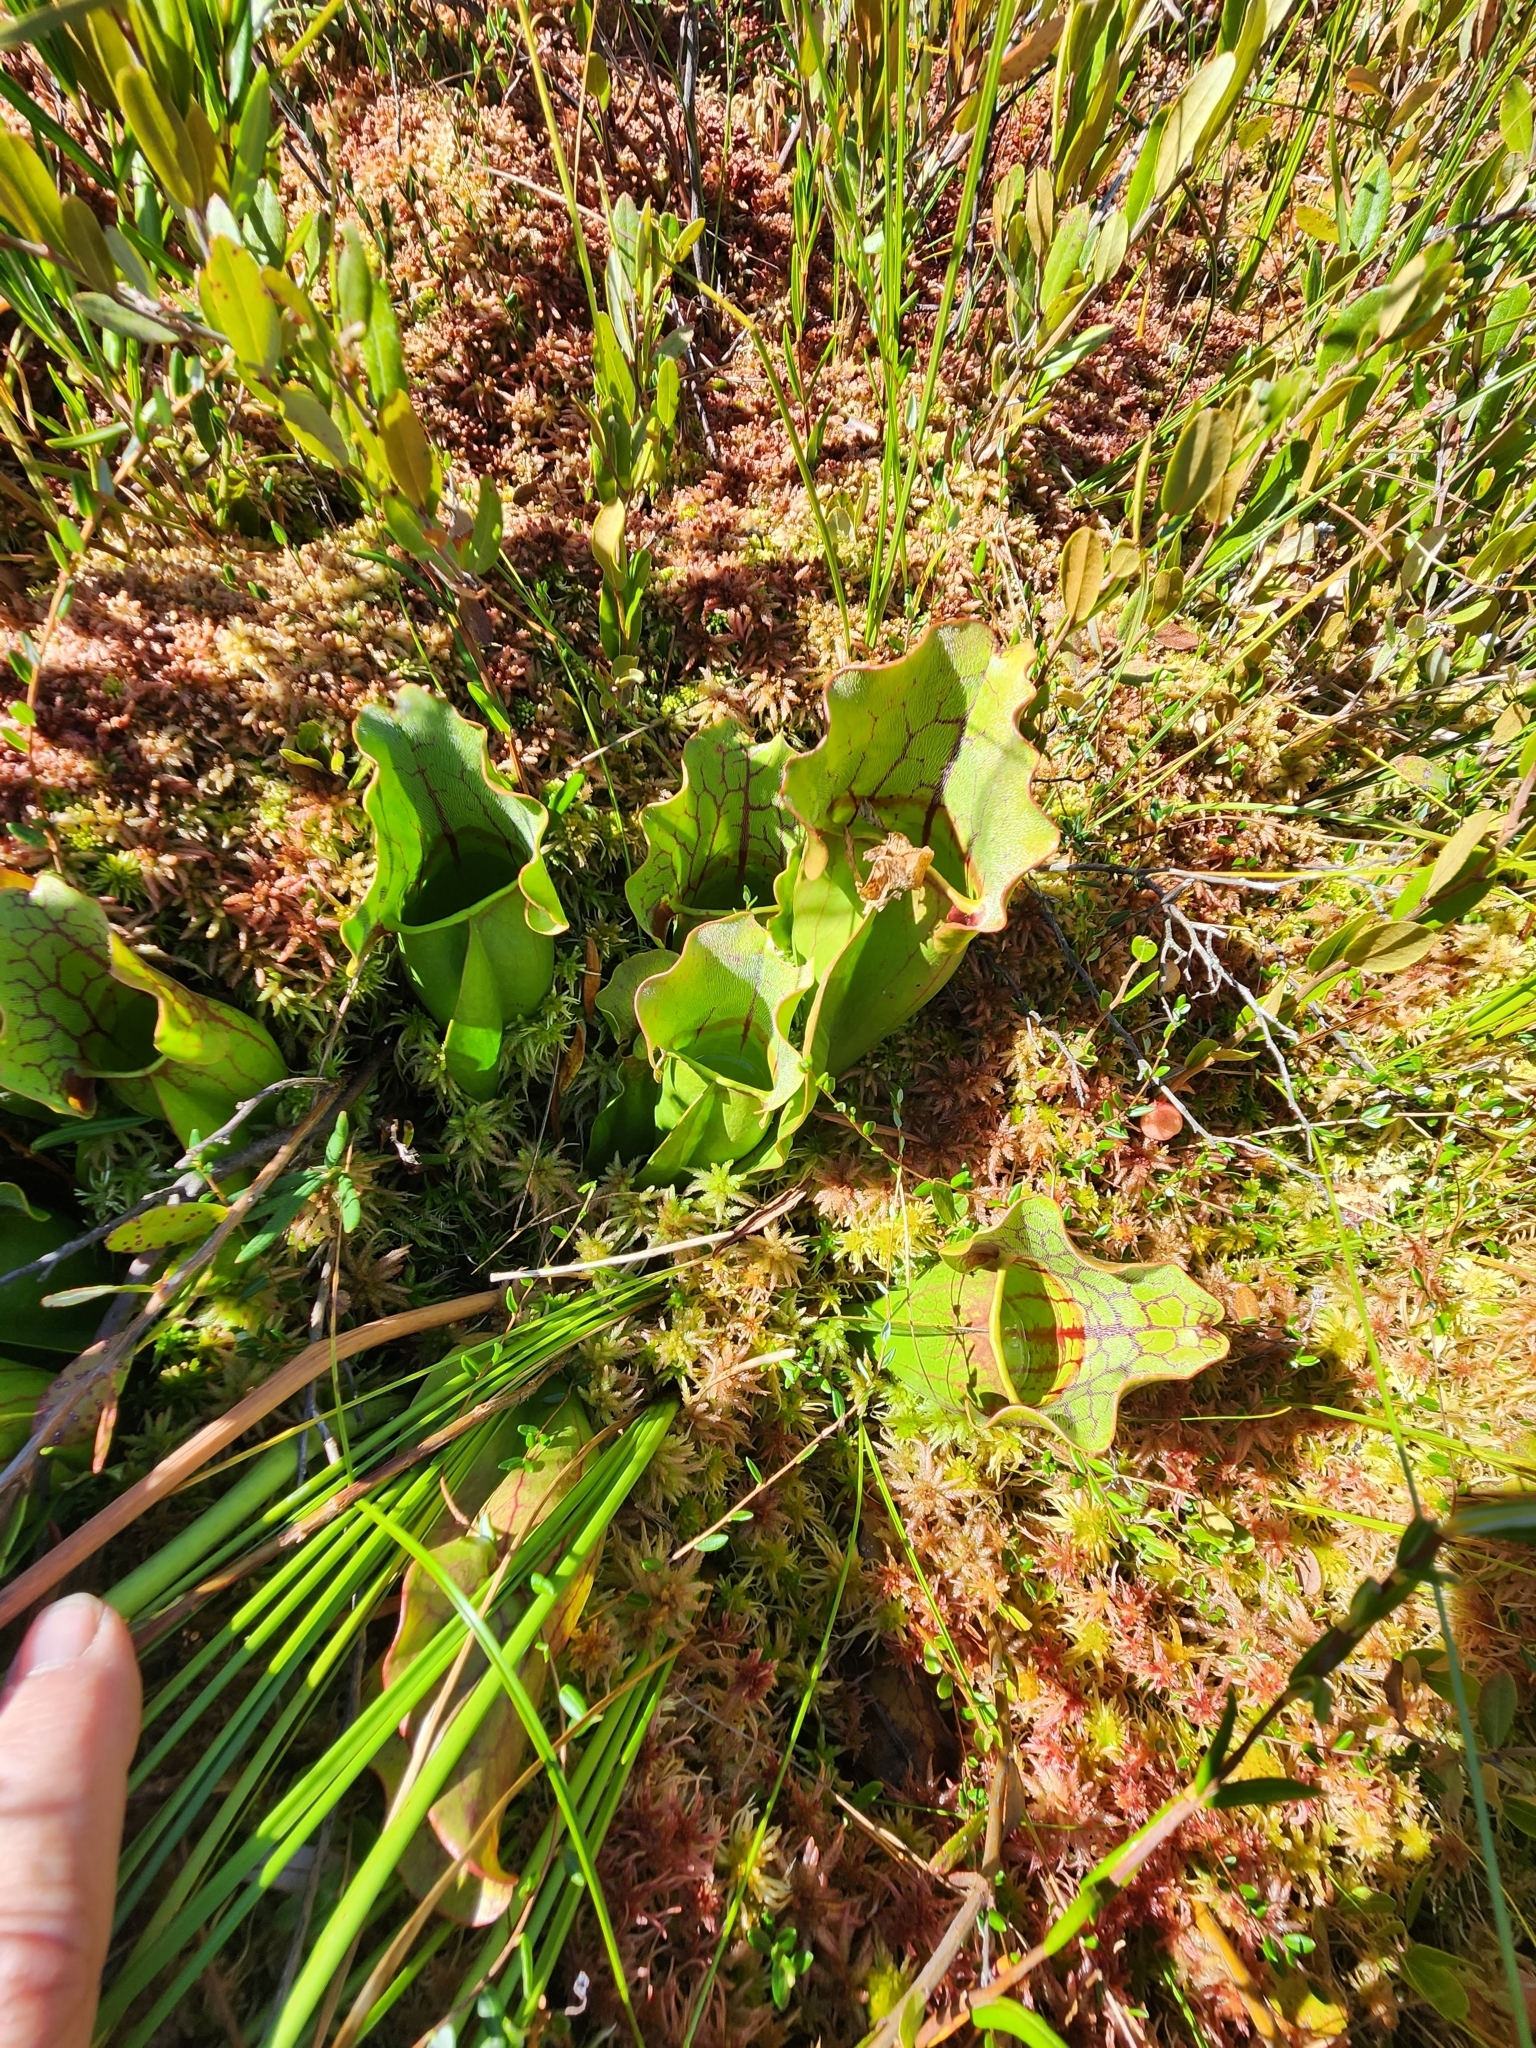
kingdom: Plantae
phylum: Tracheophyta
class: Magnoliopsida
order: Ericales
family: Sarraceniaceae
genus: Sarracenia
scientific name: Sarracenia purpurea
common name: Pitcherplant
